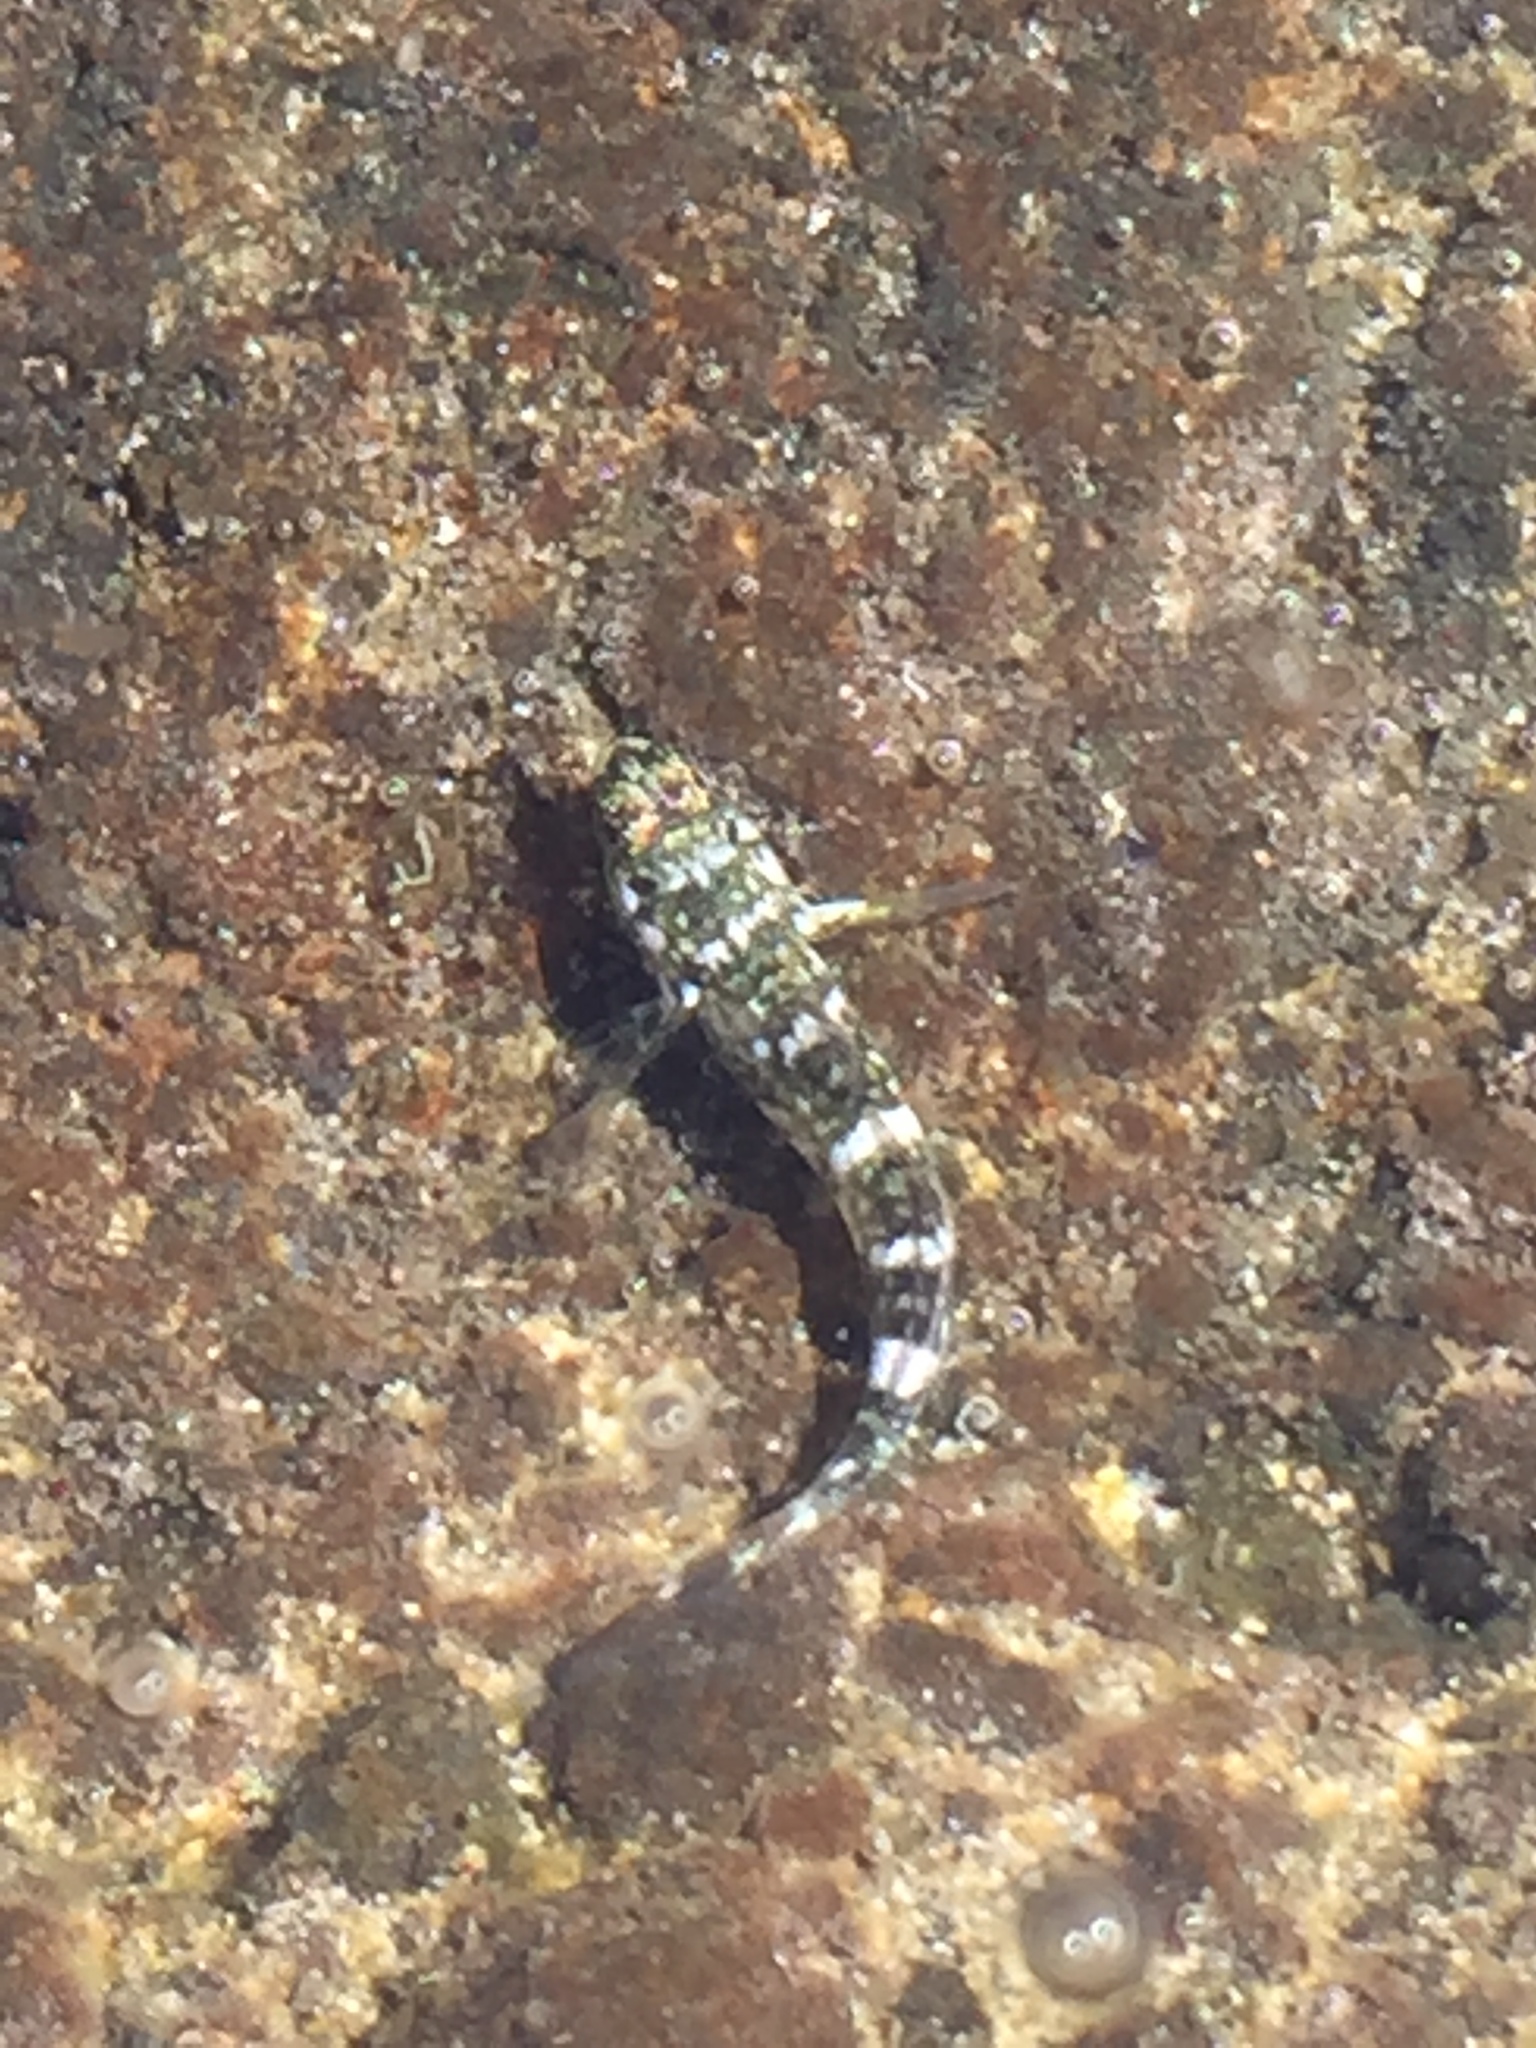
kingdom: Animalia
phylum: Chordata
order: Perciformes
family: Gobiidae
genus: Mauligobius
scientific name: Mauligobius maderensis
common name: Rock goby
